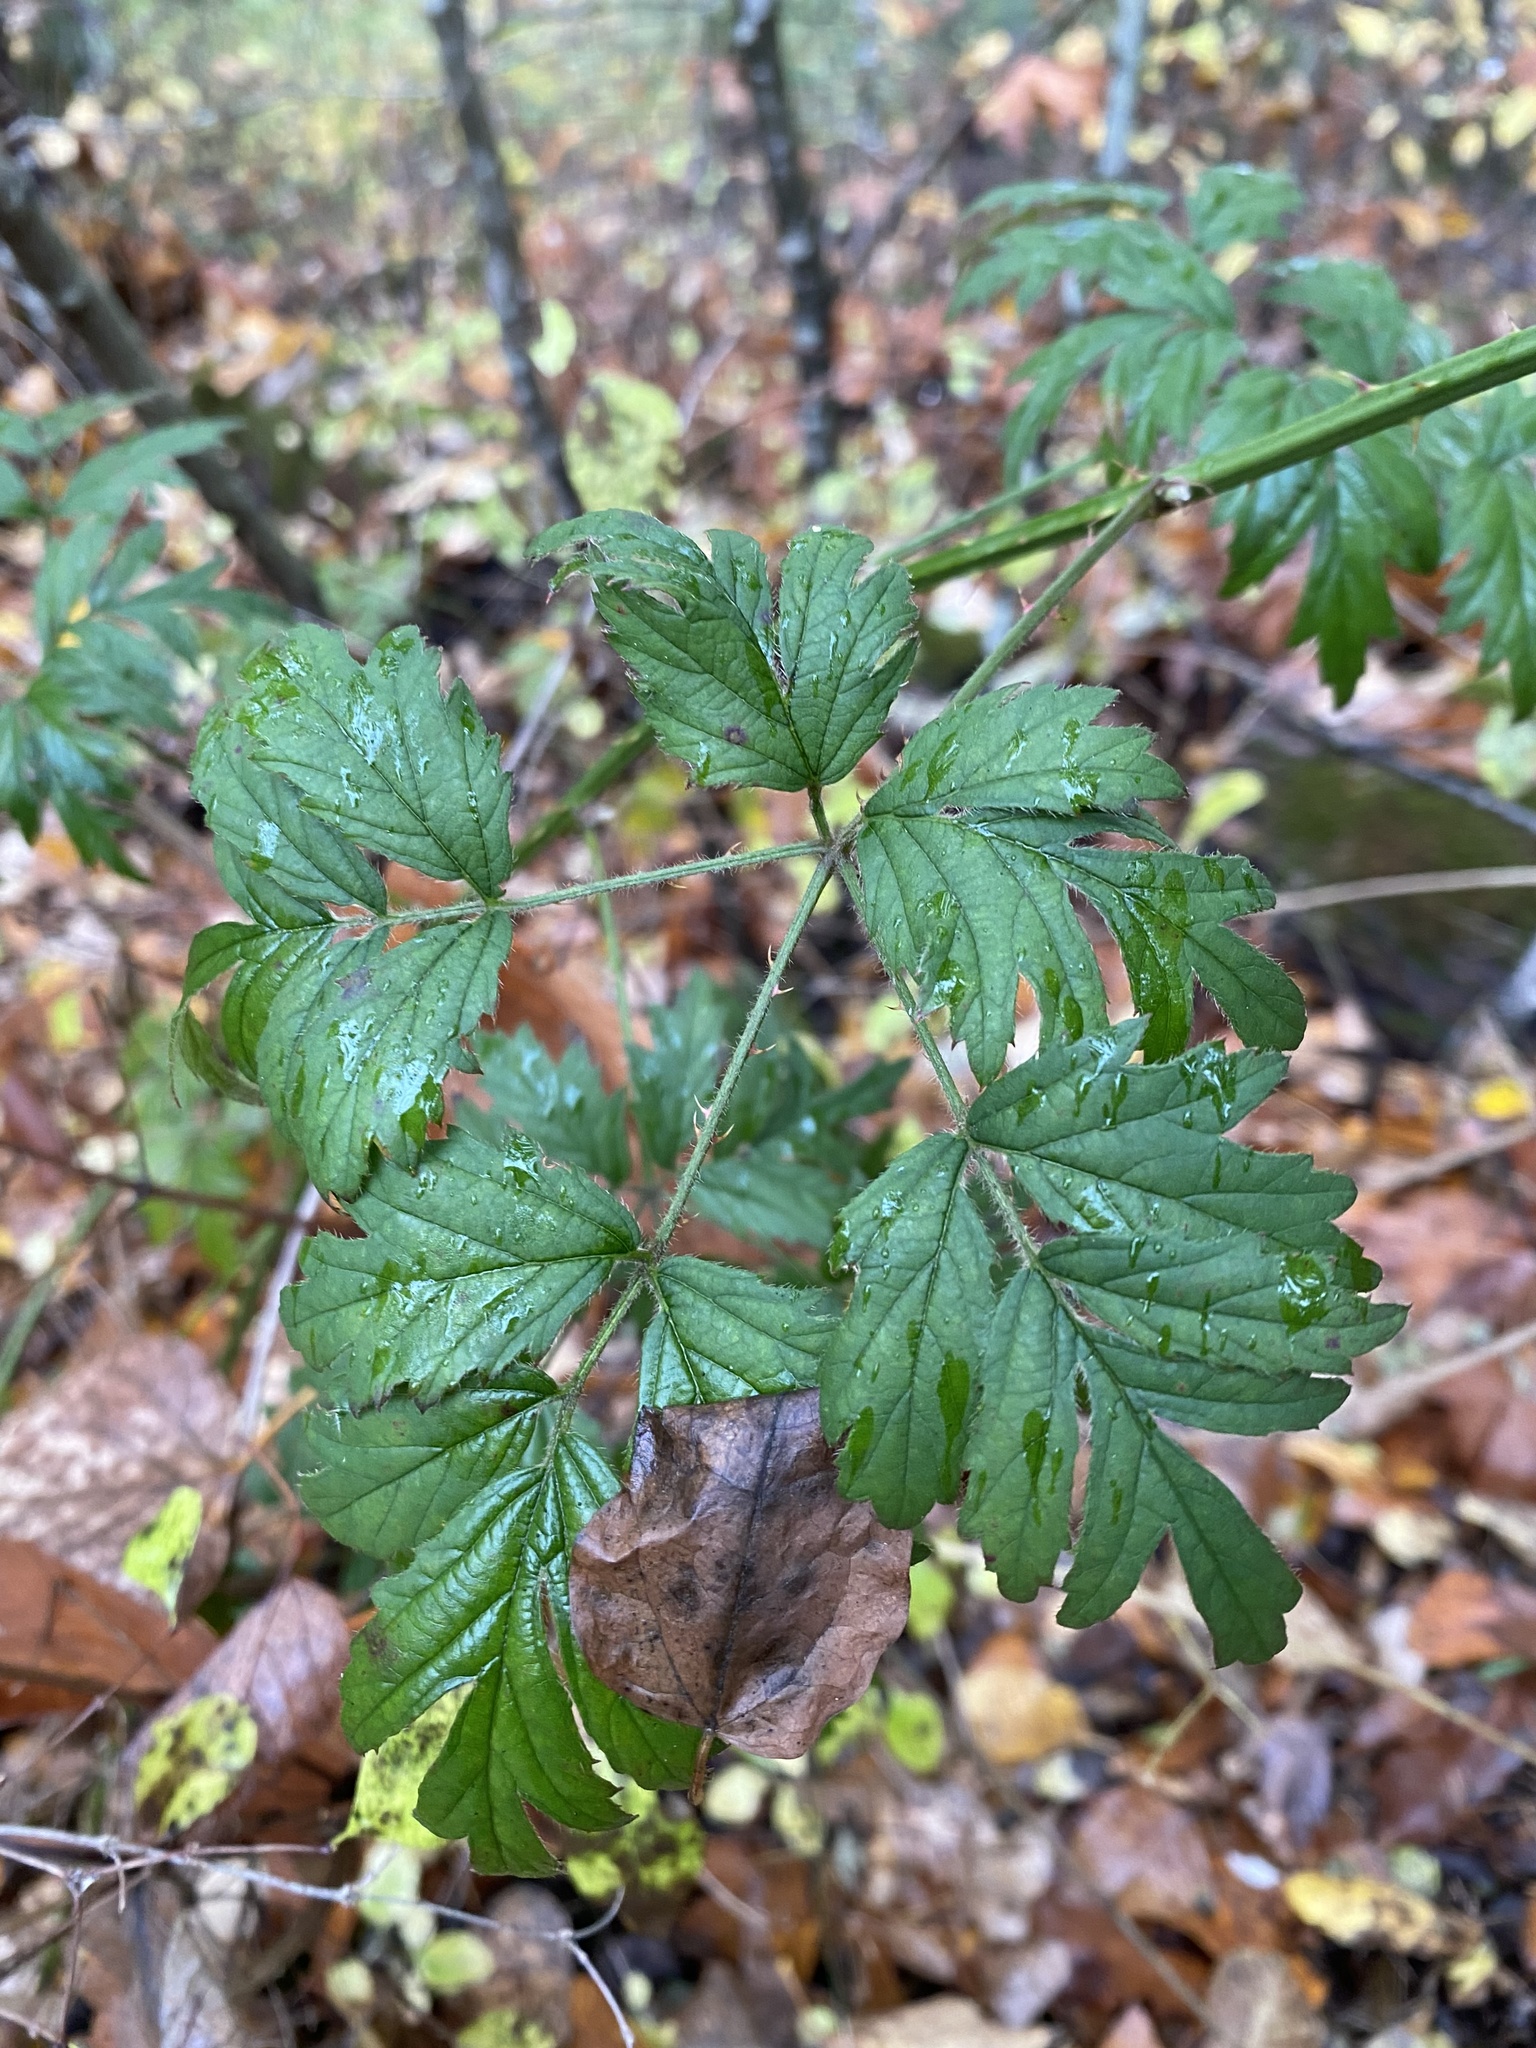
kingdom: Plantae
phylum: Tracheophyta
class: Magnoliopsida
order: Rosales
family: Rosaceae
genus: Rubus
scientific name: Rubus laciniatus
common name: Evergreen blackberry
